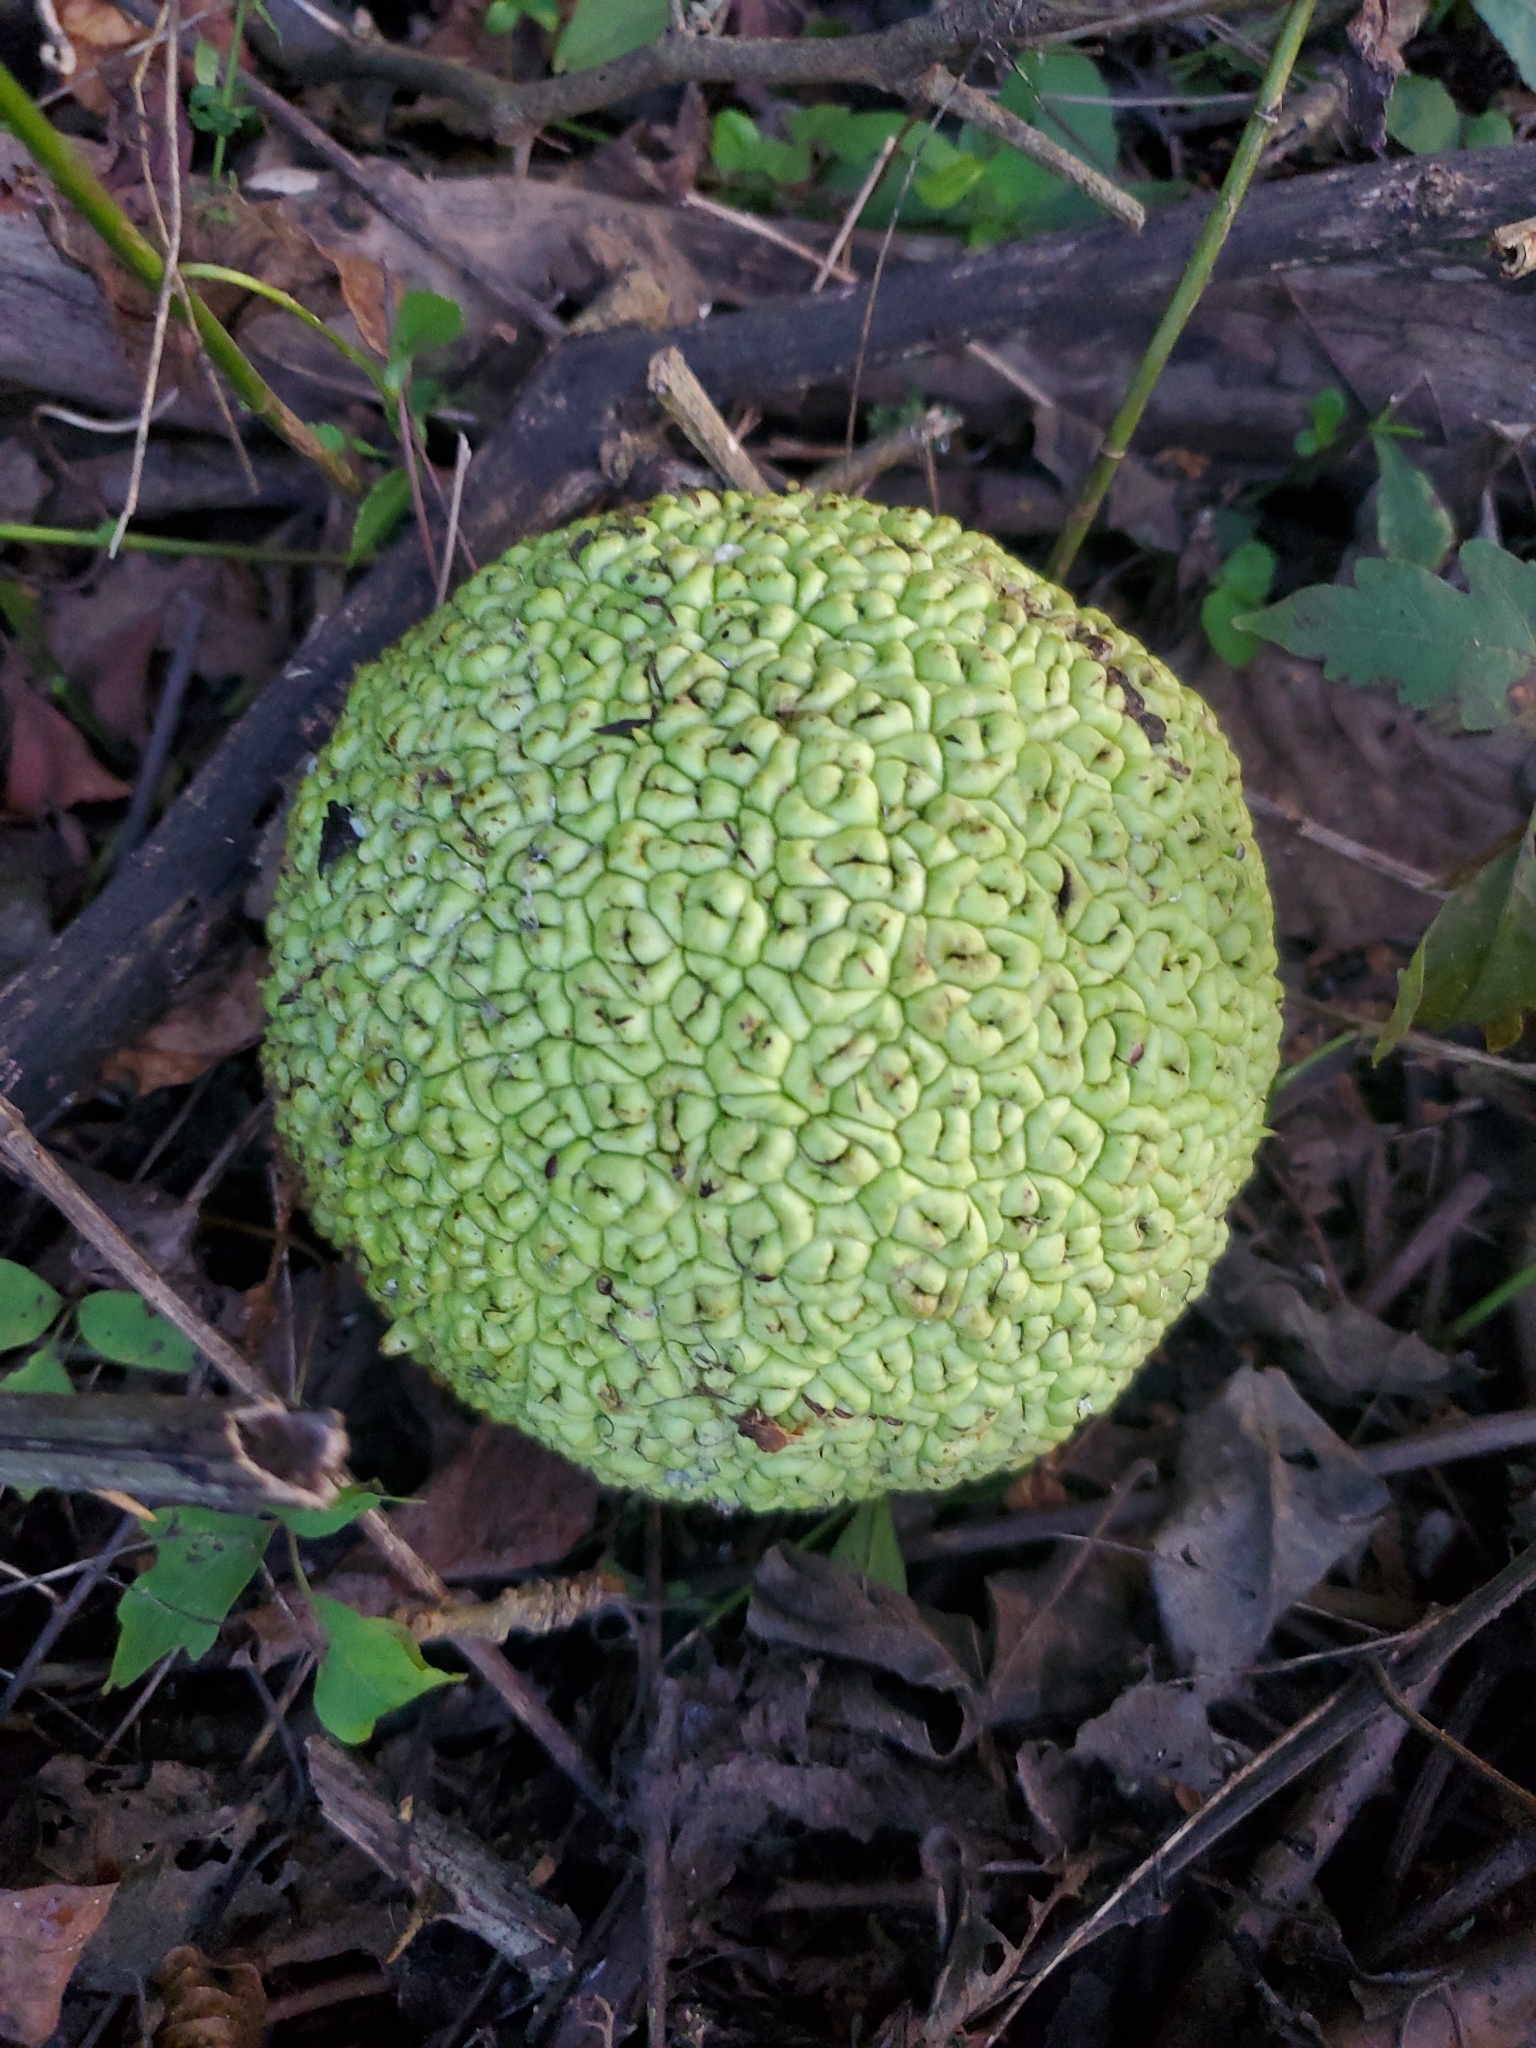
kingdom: Plantae
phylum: Tracheophyta
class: Magnoliopsida
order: Rosales
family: Moraceae
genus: Maclura
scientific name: Maclura pomifera
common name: Osage-orange
